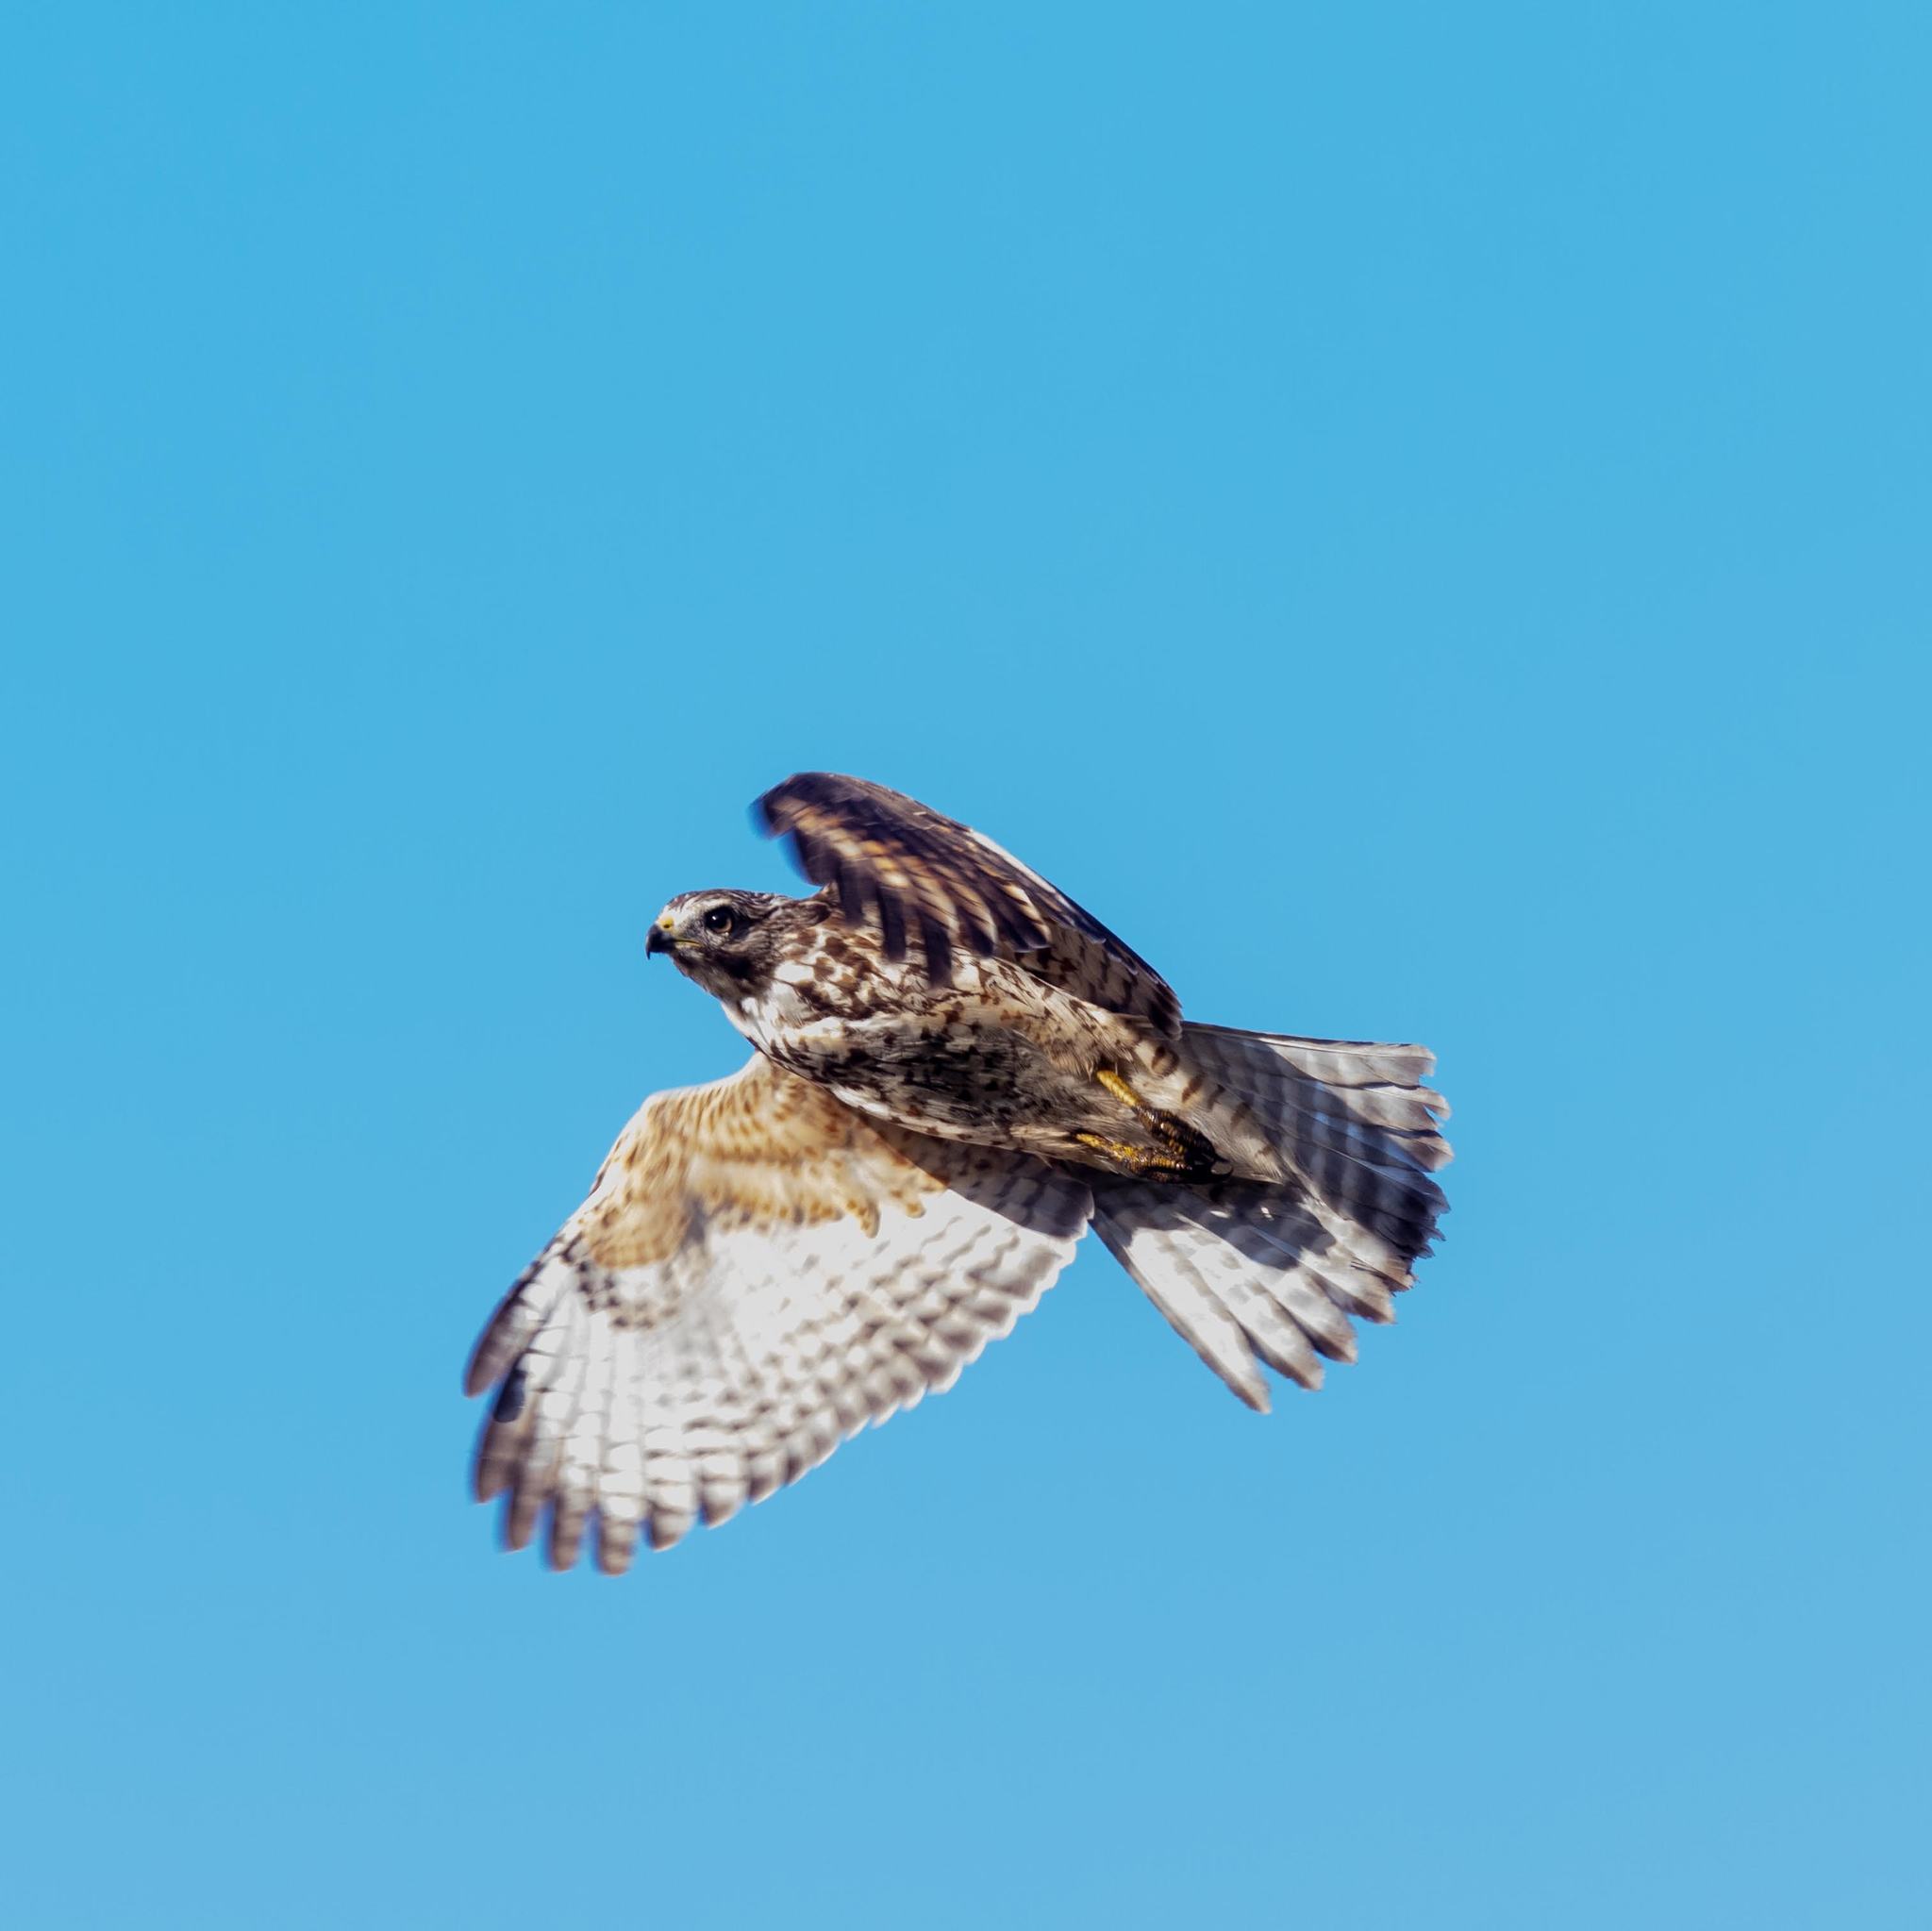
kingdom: Animalia
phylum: Chordata
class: Aves
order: Accipitriformes
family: Accipitridae
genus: Buteo
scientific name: Buteo lineatus
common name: Red-shouldered hawk
